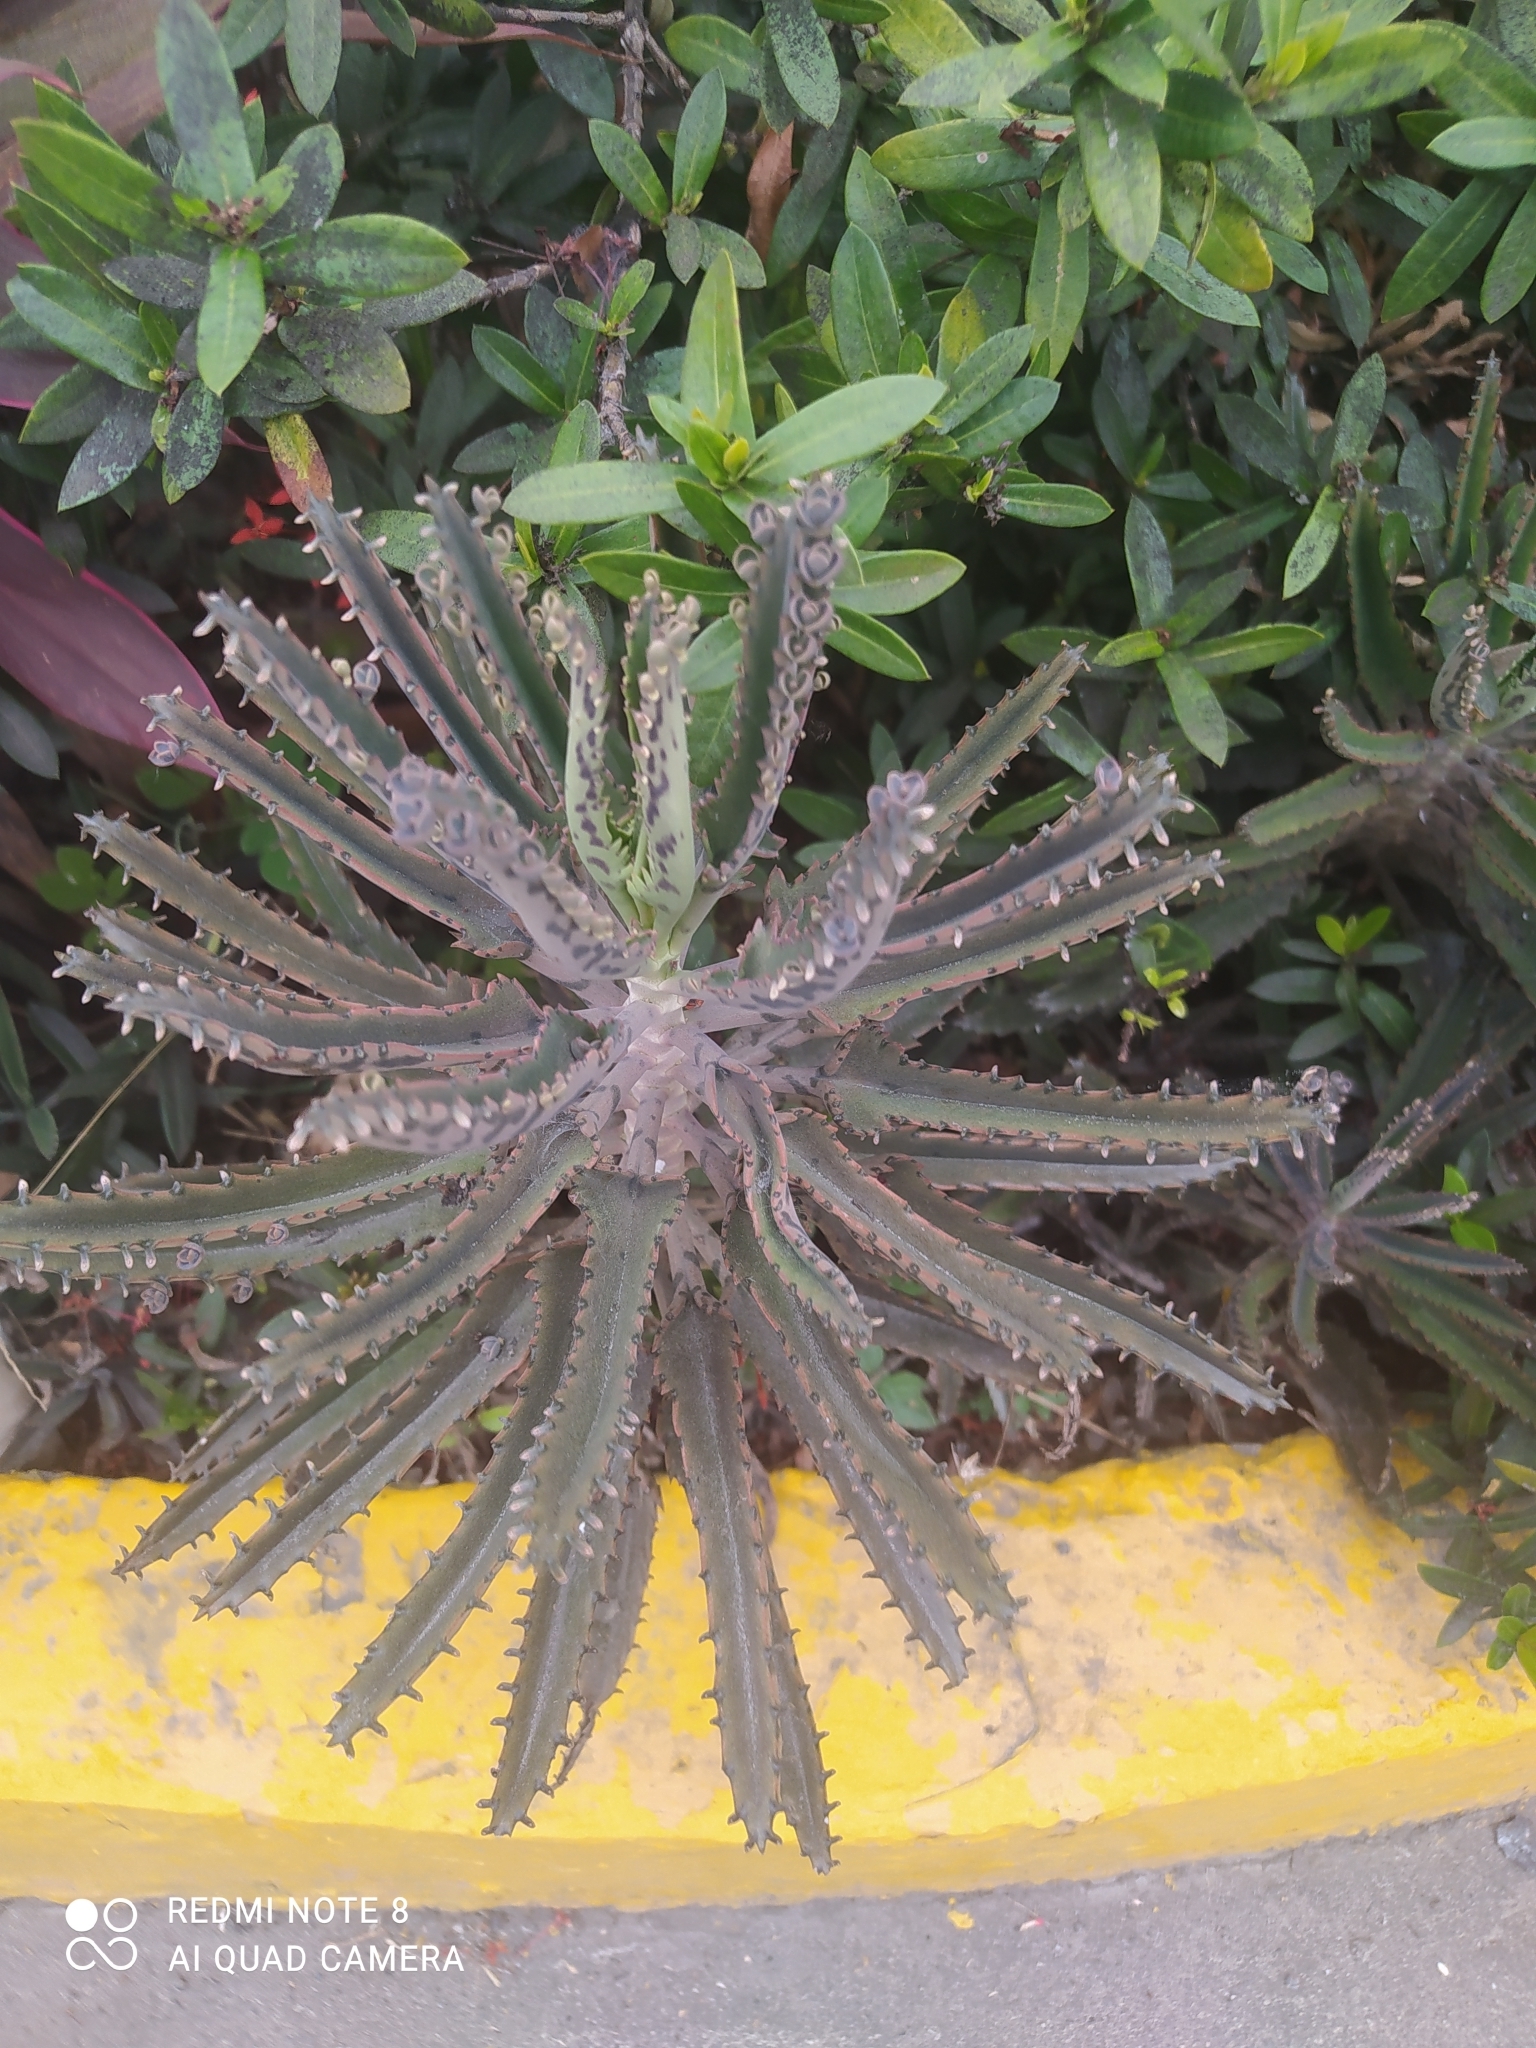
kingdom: Plantae
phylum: Tracheophyta
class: Magnoliopsida
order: Saxifragales
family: Crassulaceae
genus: Kalanchoe
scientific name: Kalanchoe houghtonii
